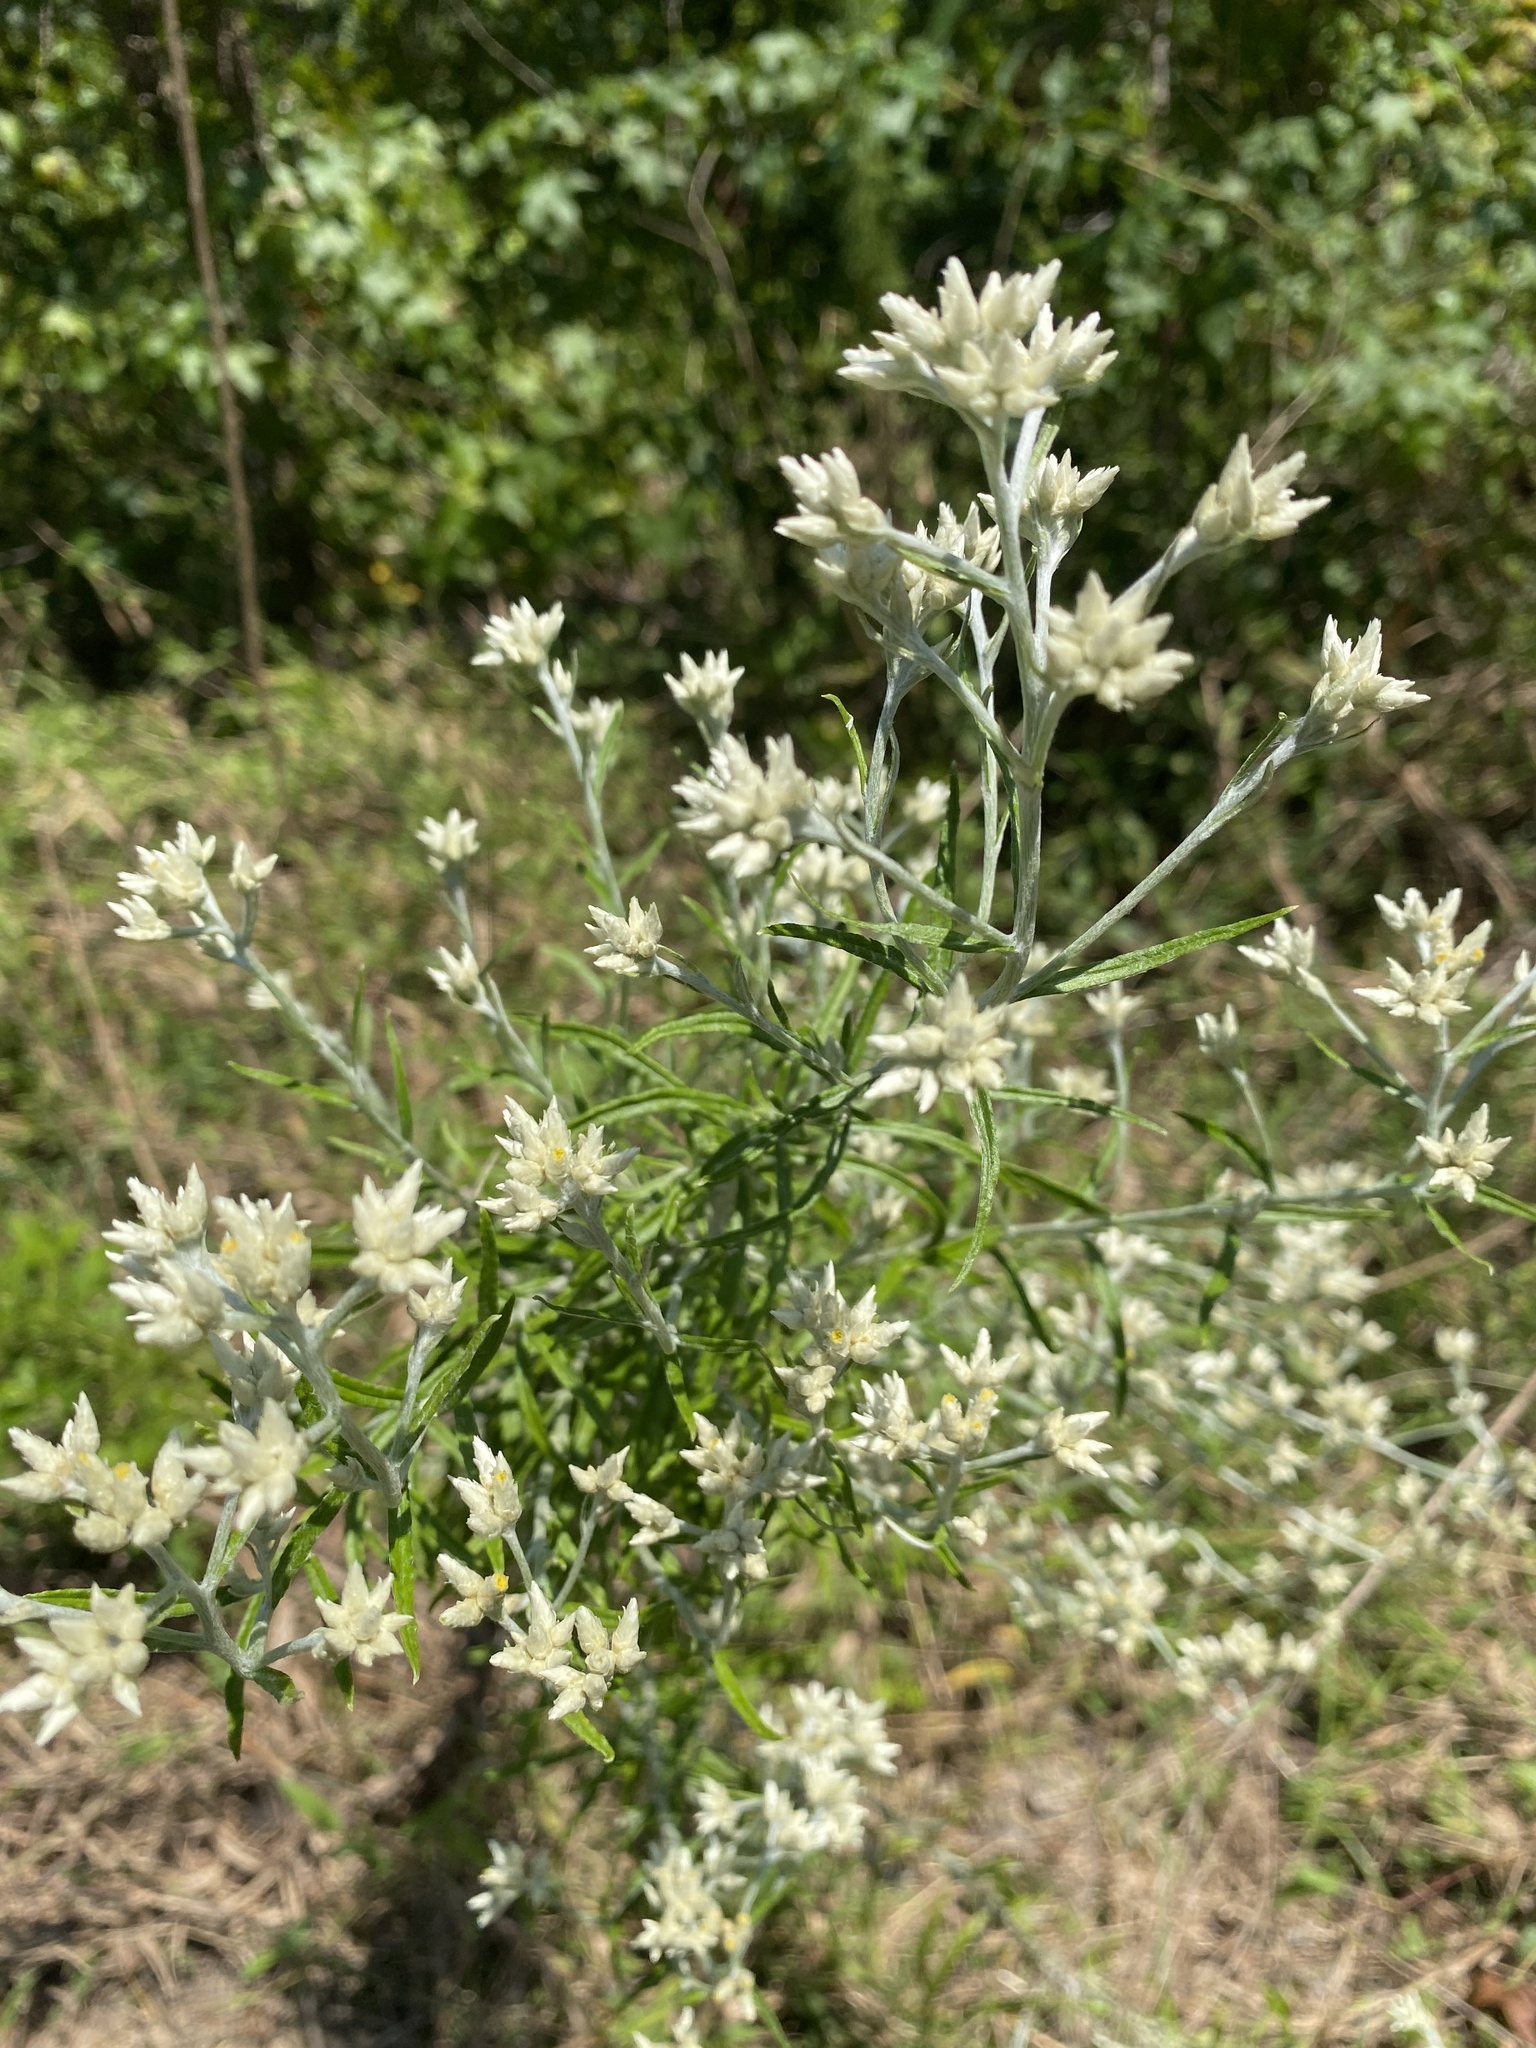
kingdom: Plantae
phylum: Tracheophyta
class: Magnoliopsida
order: Asterales
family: Asteraceae
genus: Pseudognaphalium
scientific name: Pseudognaphalium obtusifolium
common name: Eastern rabbit-tobacco
